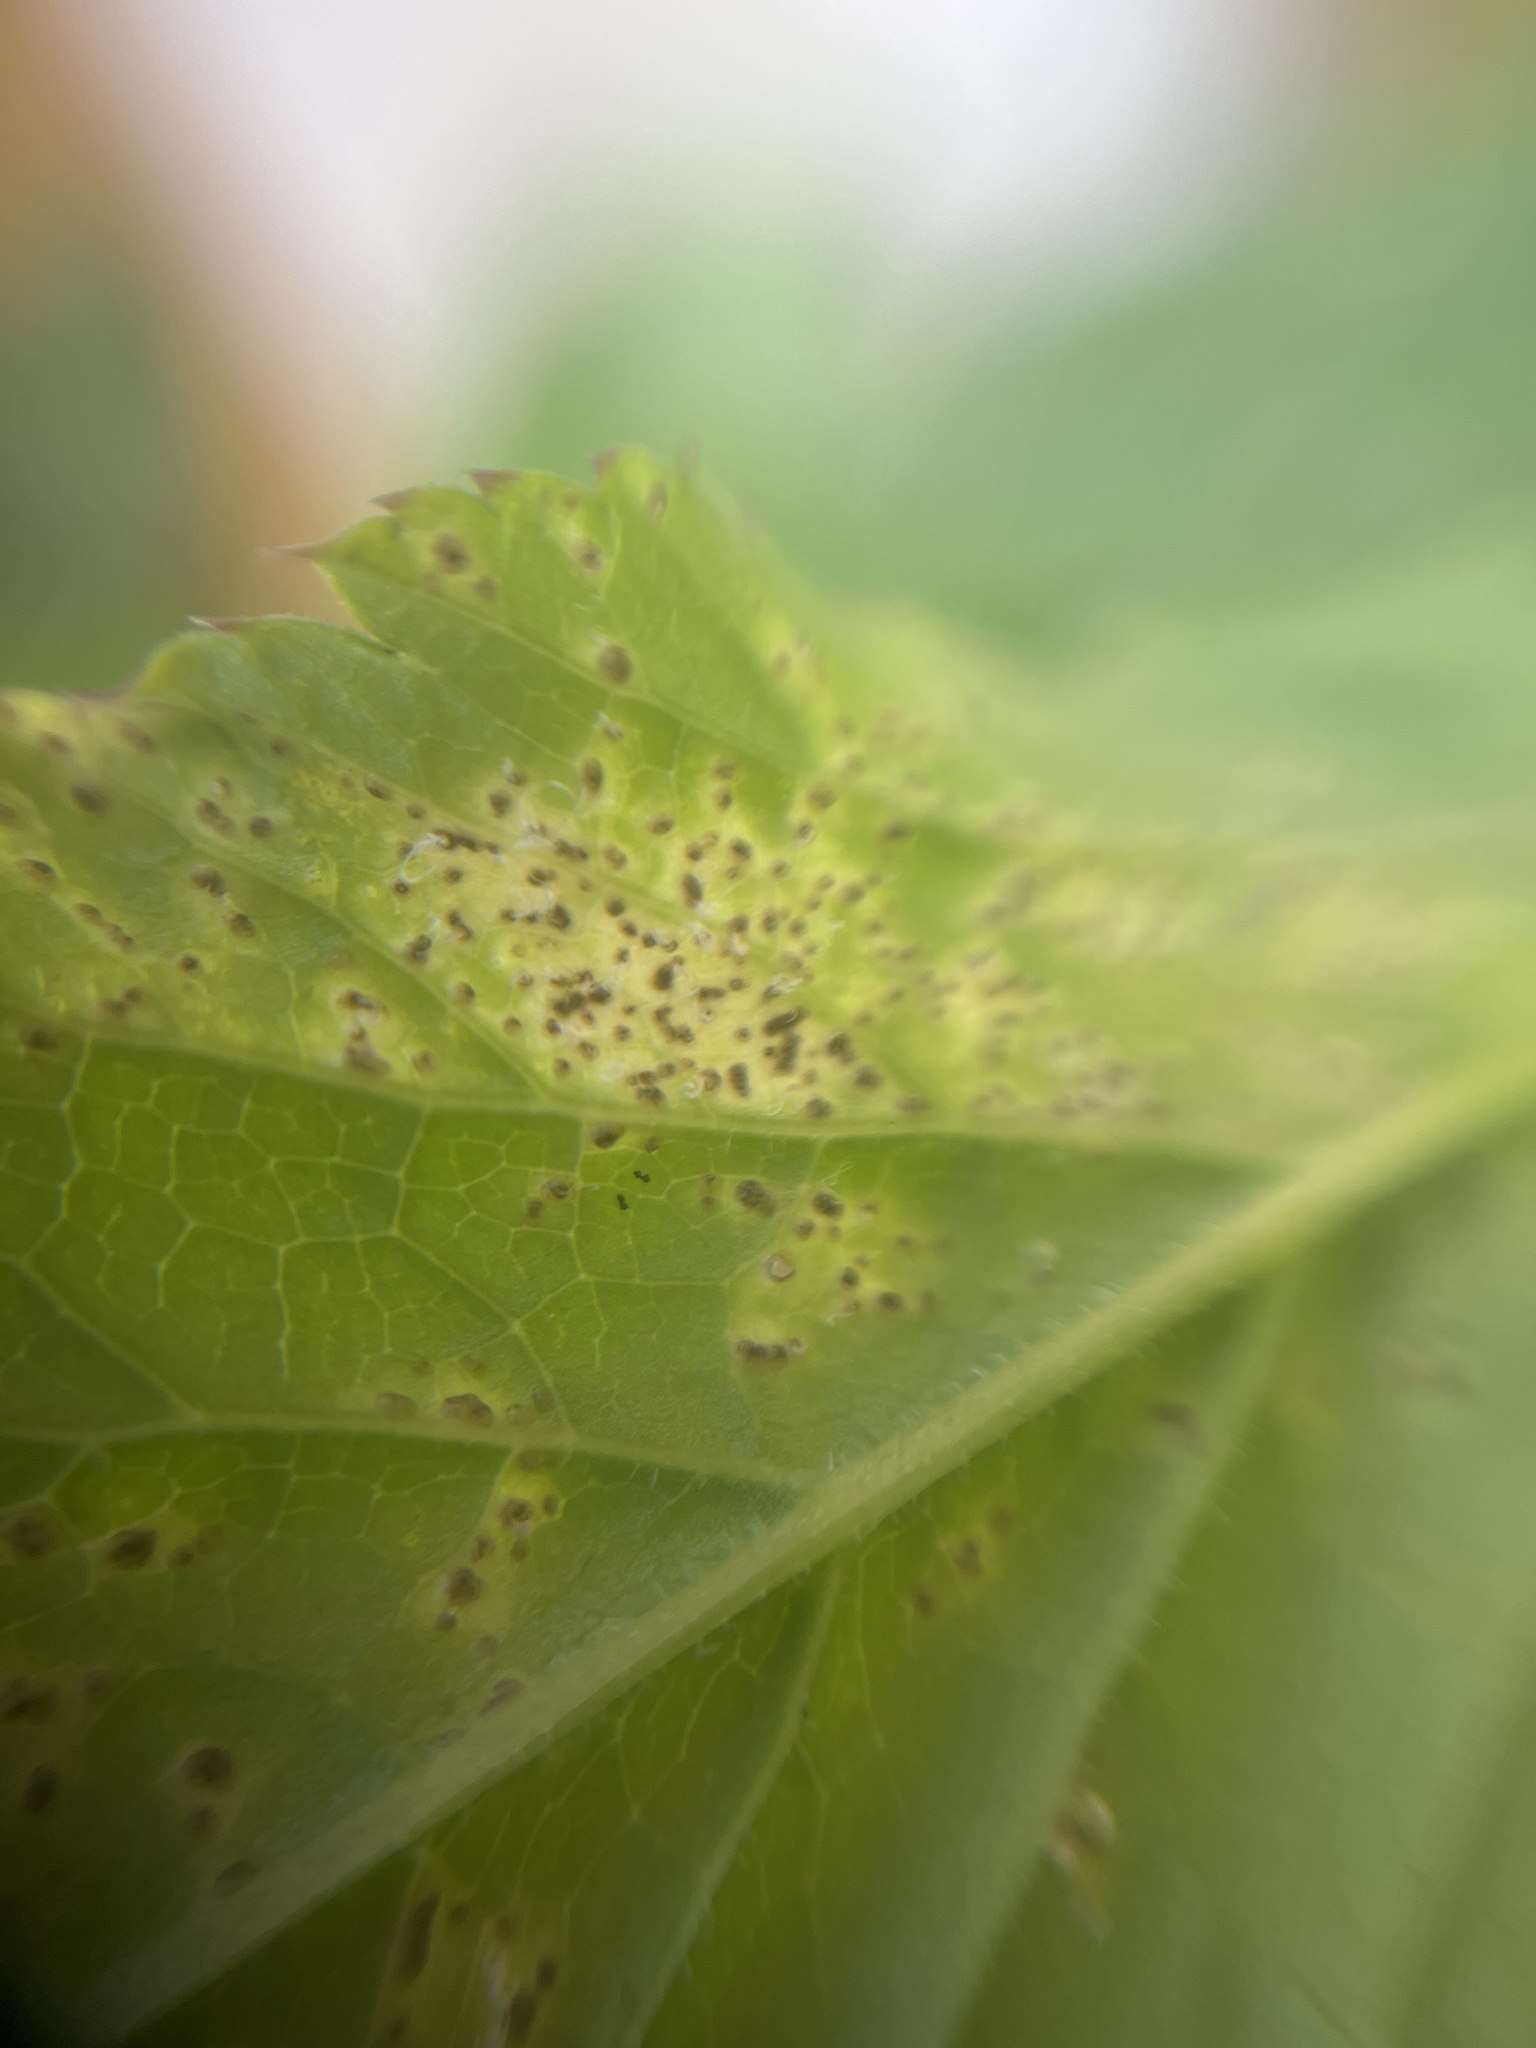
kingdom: Fungi
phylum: Ascomycota
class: Dothideomycetes
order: Mycosphaerellales
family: Mycosphaerellaceae
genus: Mycosphaerella
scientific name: Mycosphaerella podagrariae
